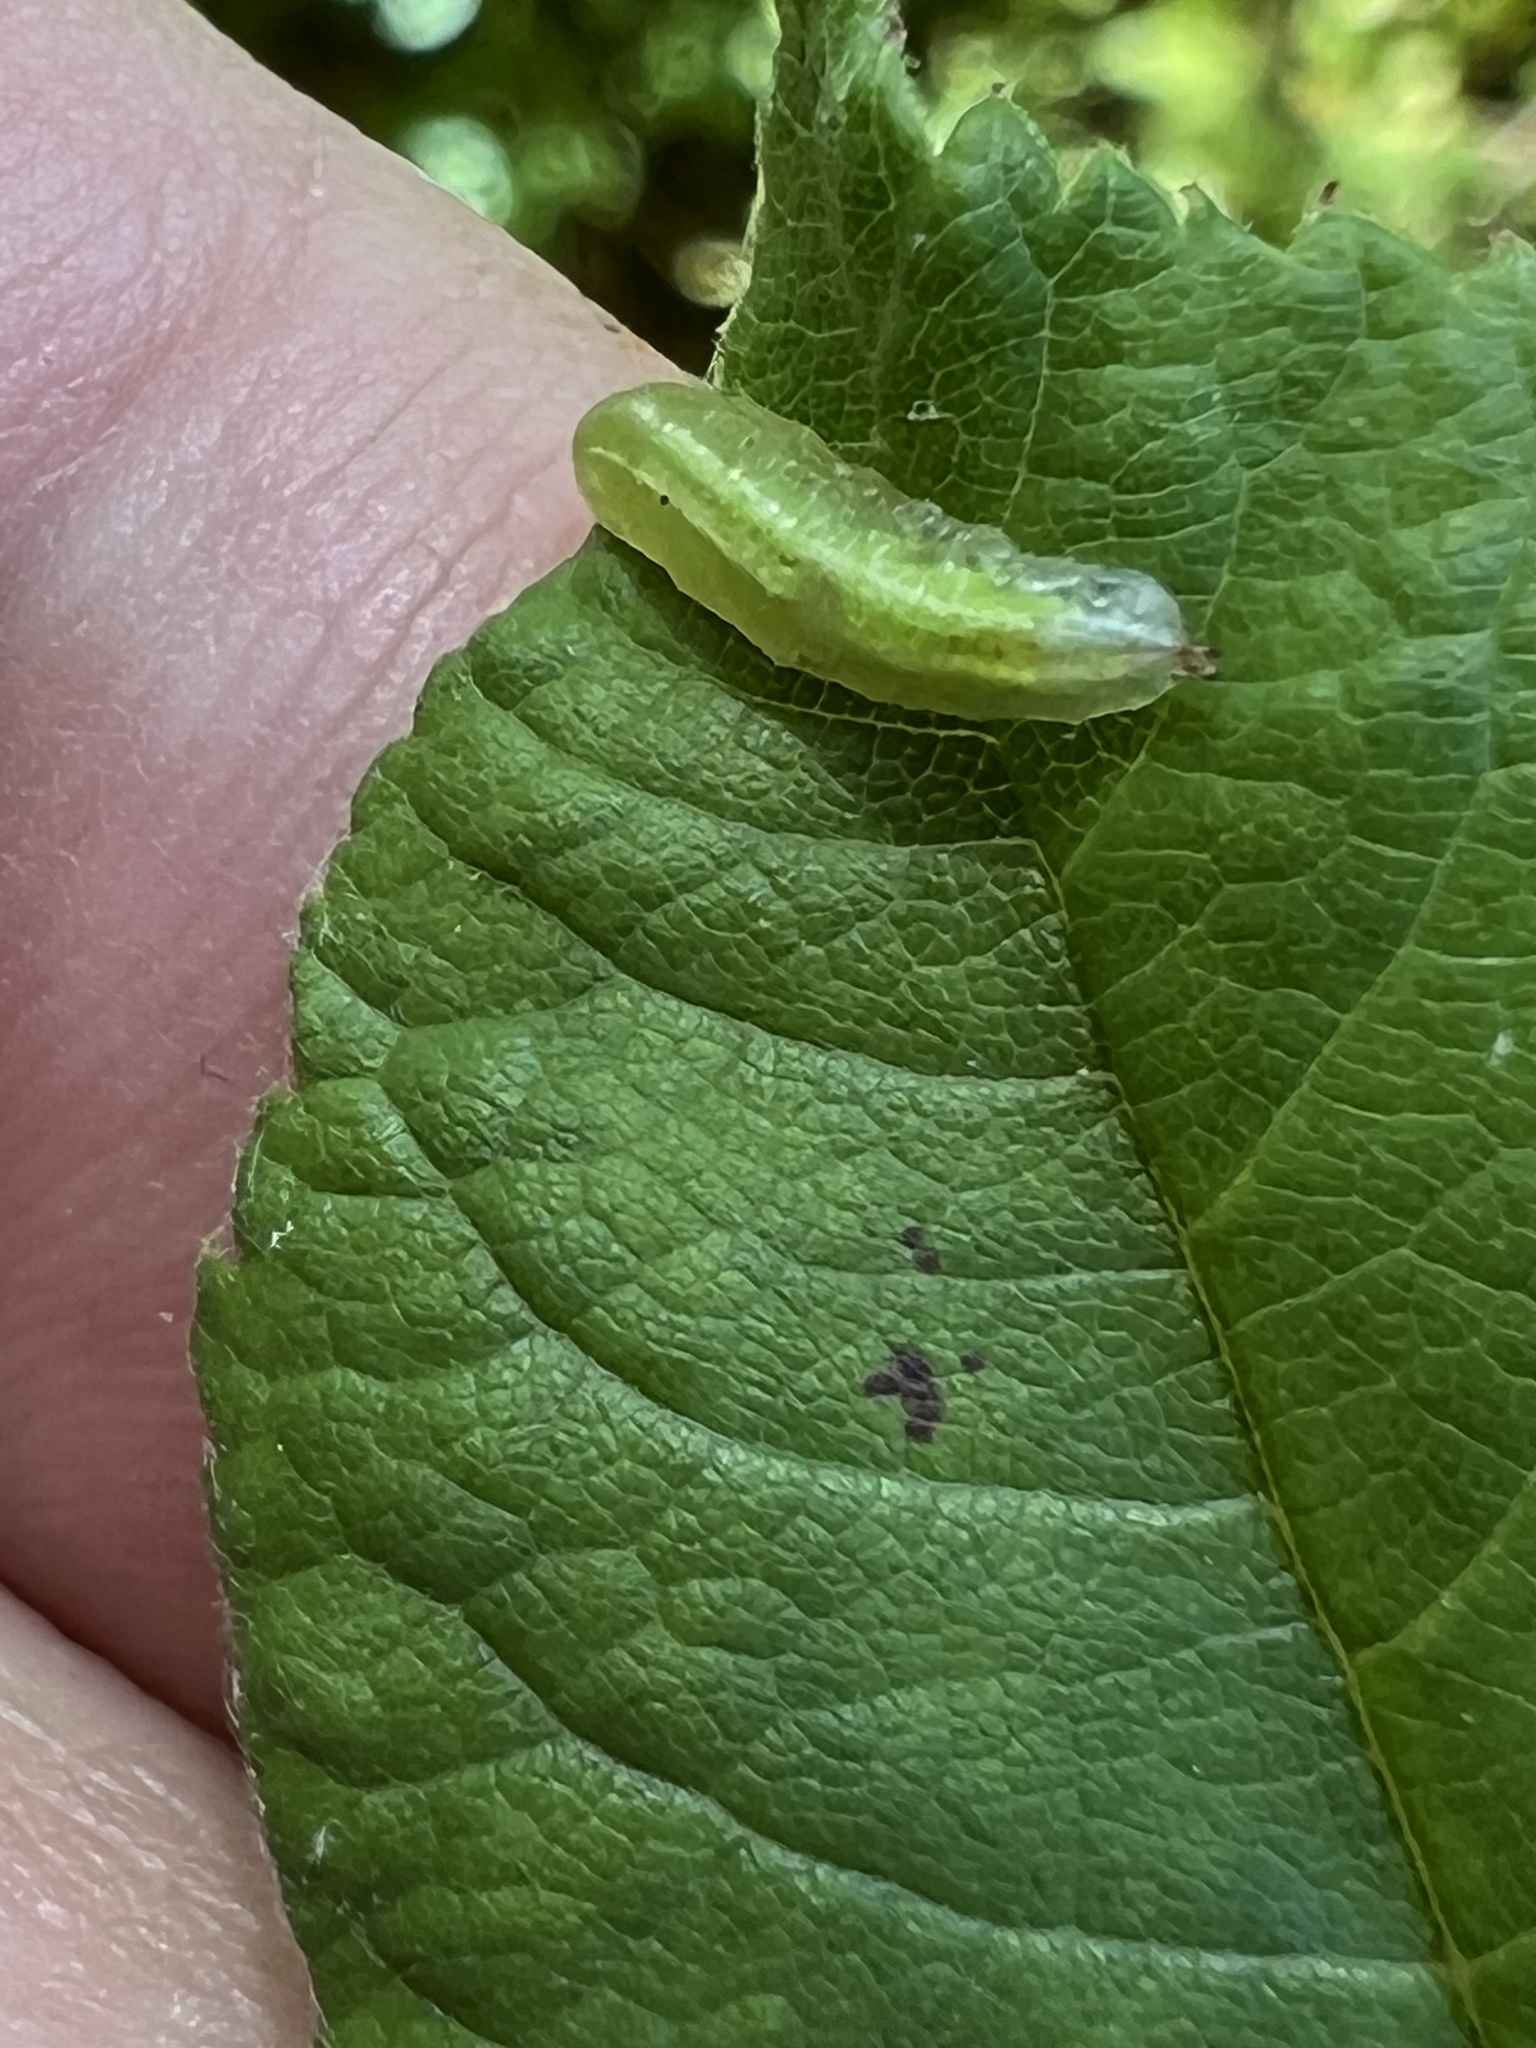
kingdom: Animalia
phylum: Arthropoda
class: Insecta
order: Diptera
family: Syrphidae
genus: Allograpta
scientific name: Allograpta
